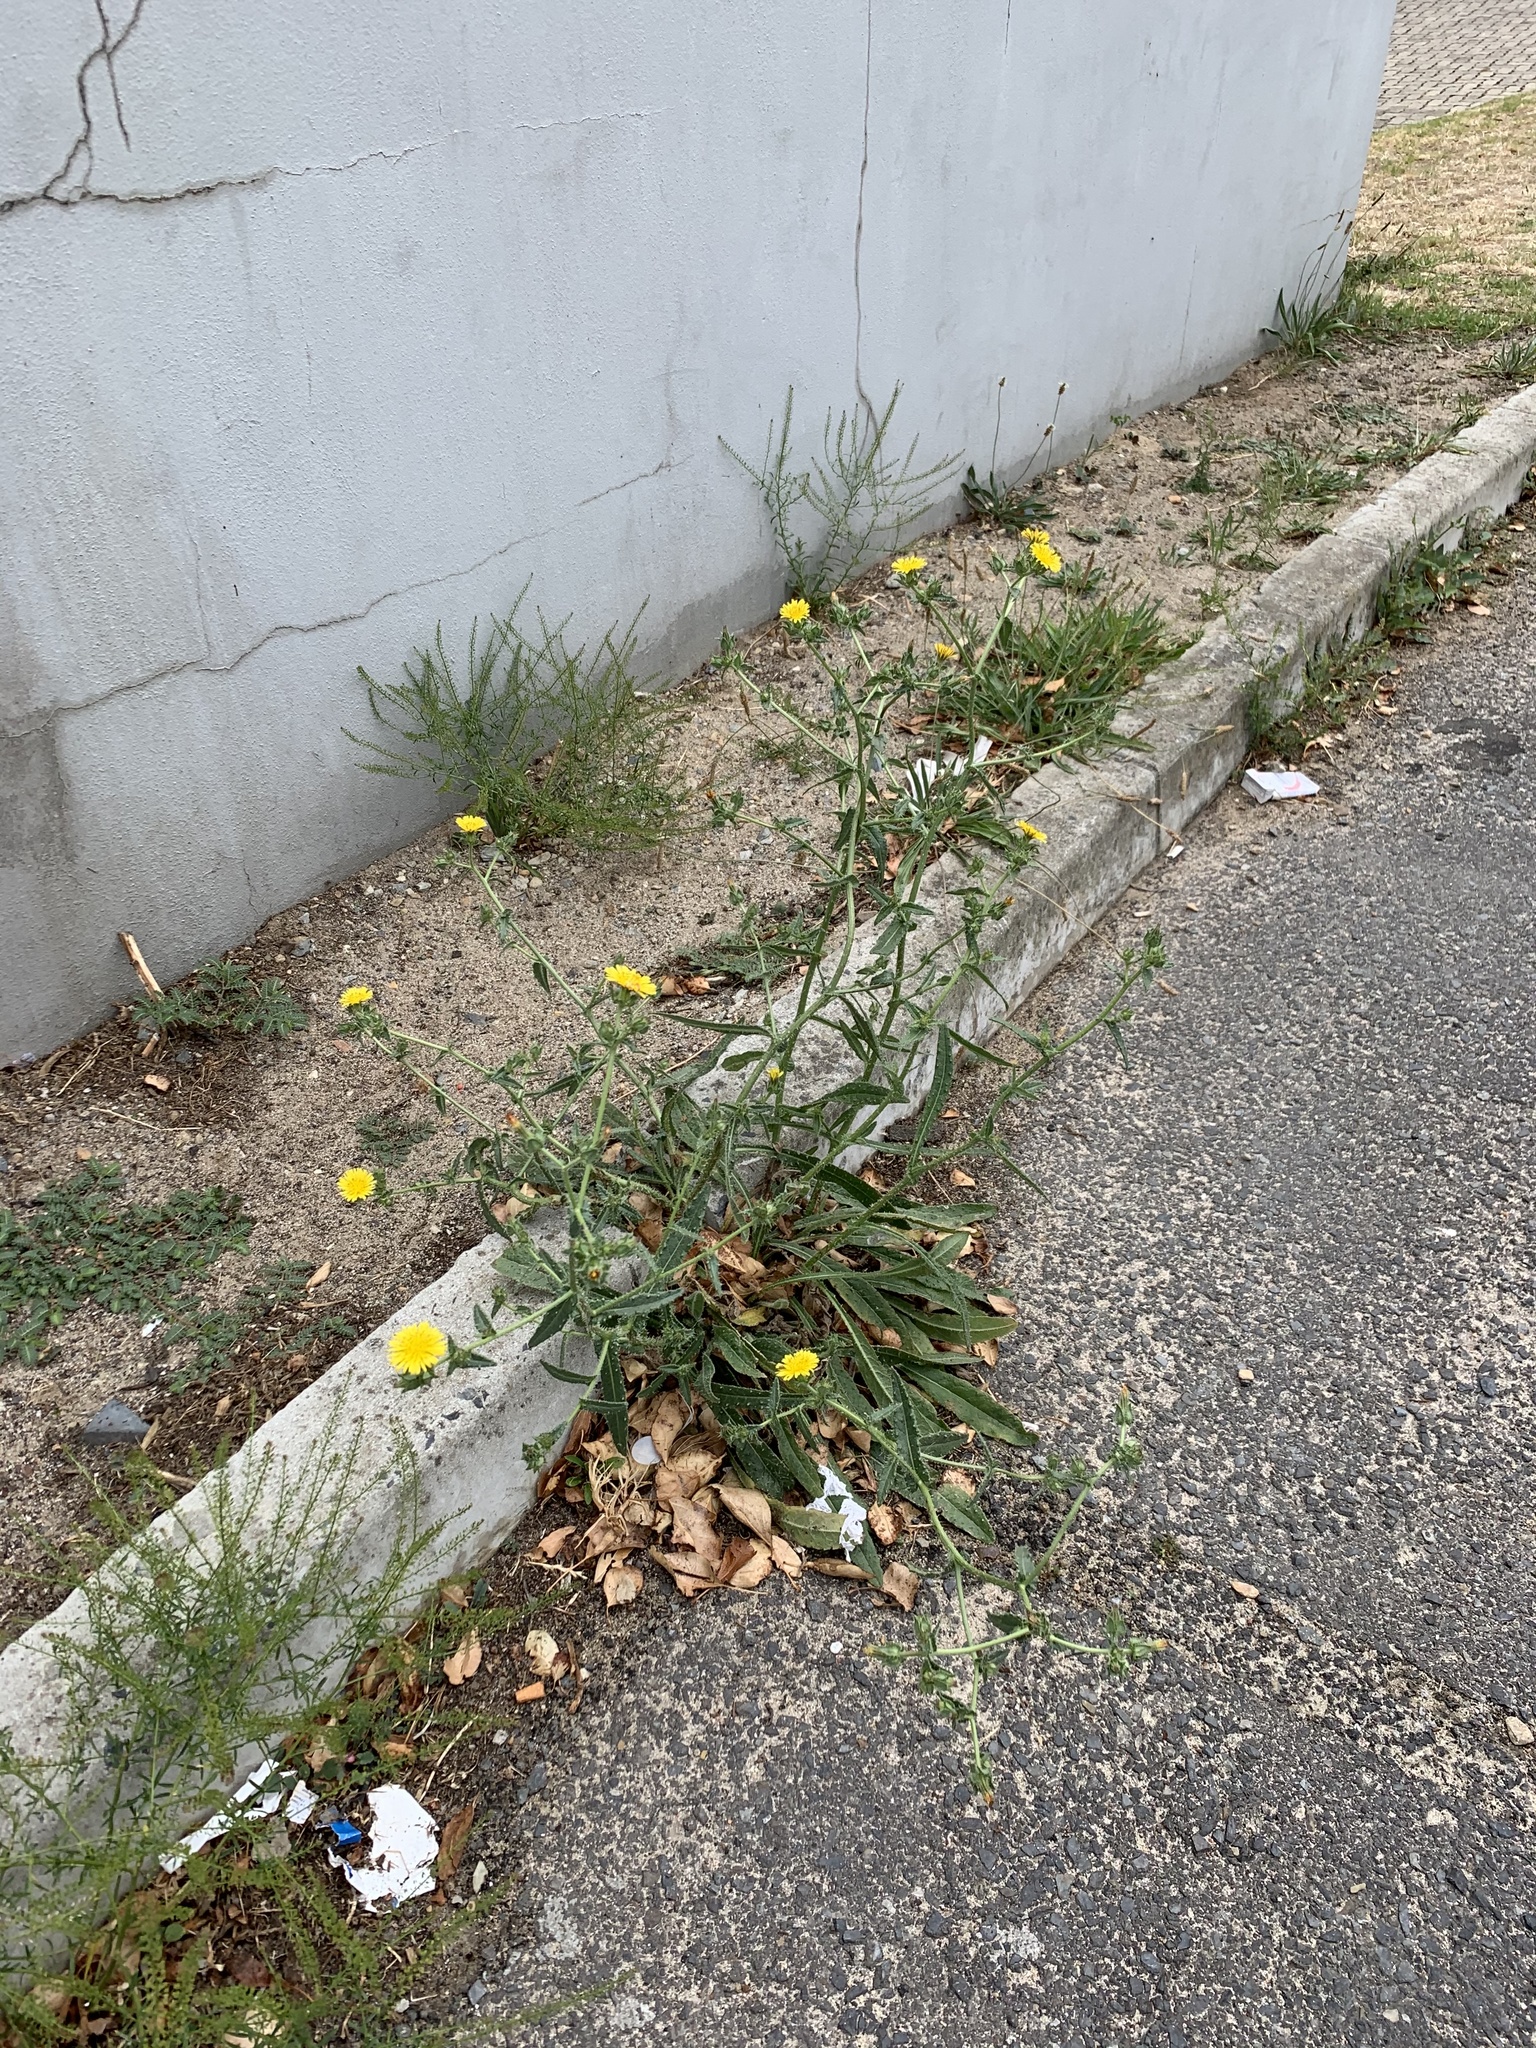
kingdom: Plantae
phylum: Tracheophyta
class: Magnoliopsida
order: Asterales
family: Asteraceae
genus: Helminthotheca
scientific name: Helminthotheca echioides
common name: Ox-tongue
